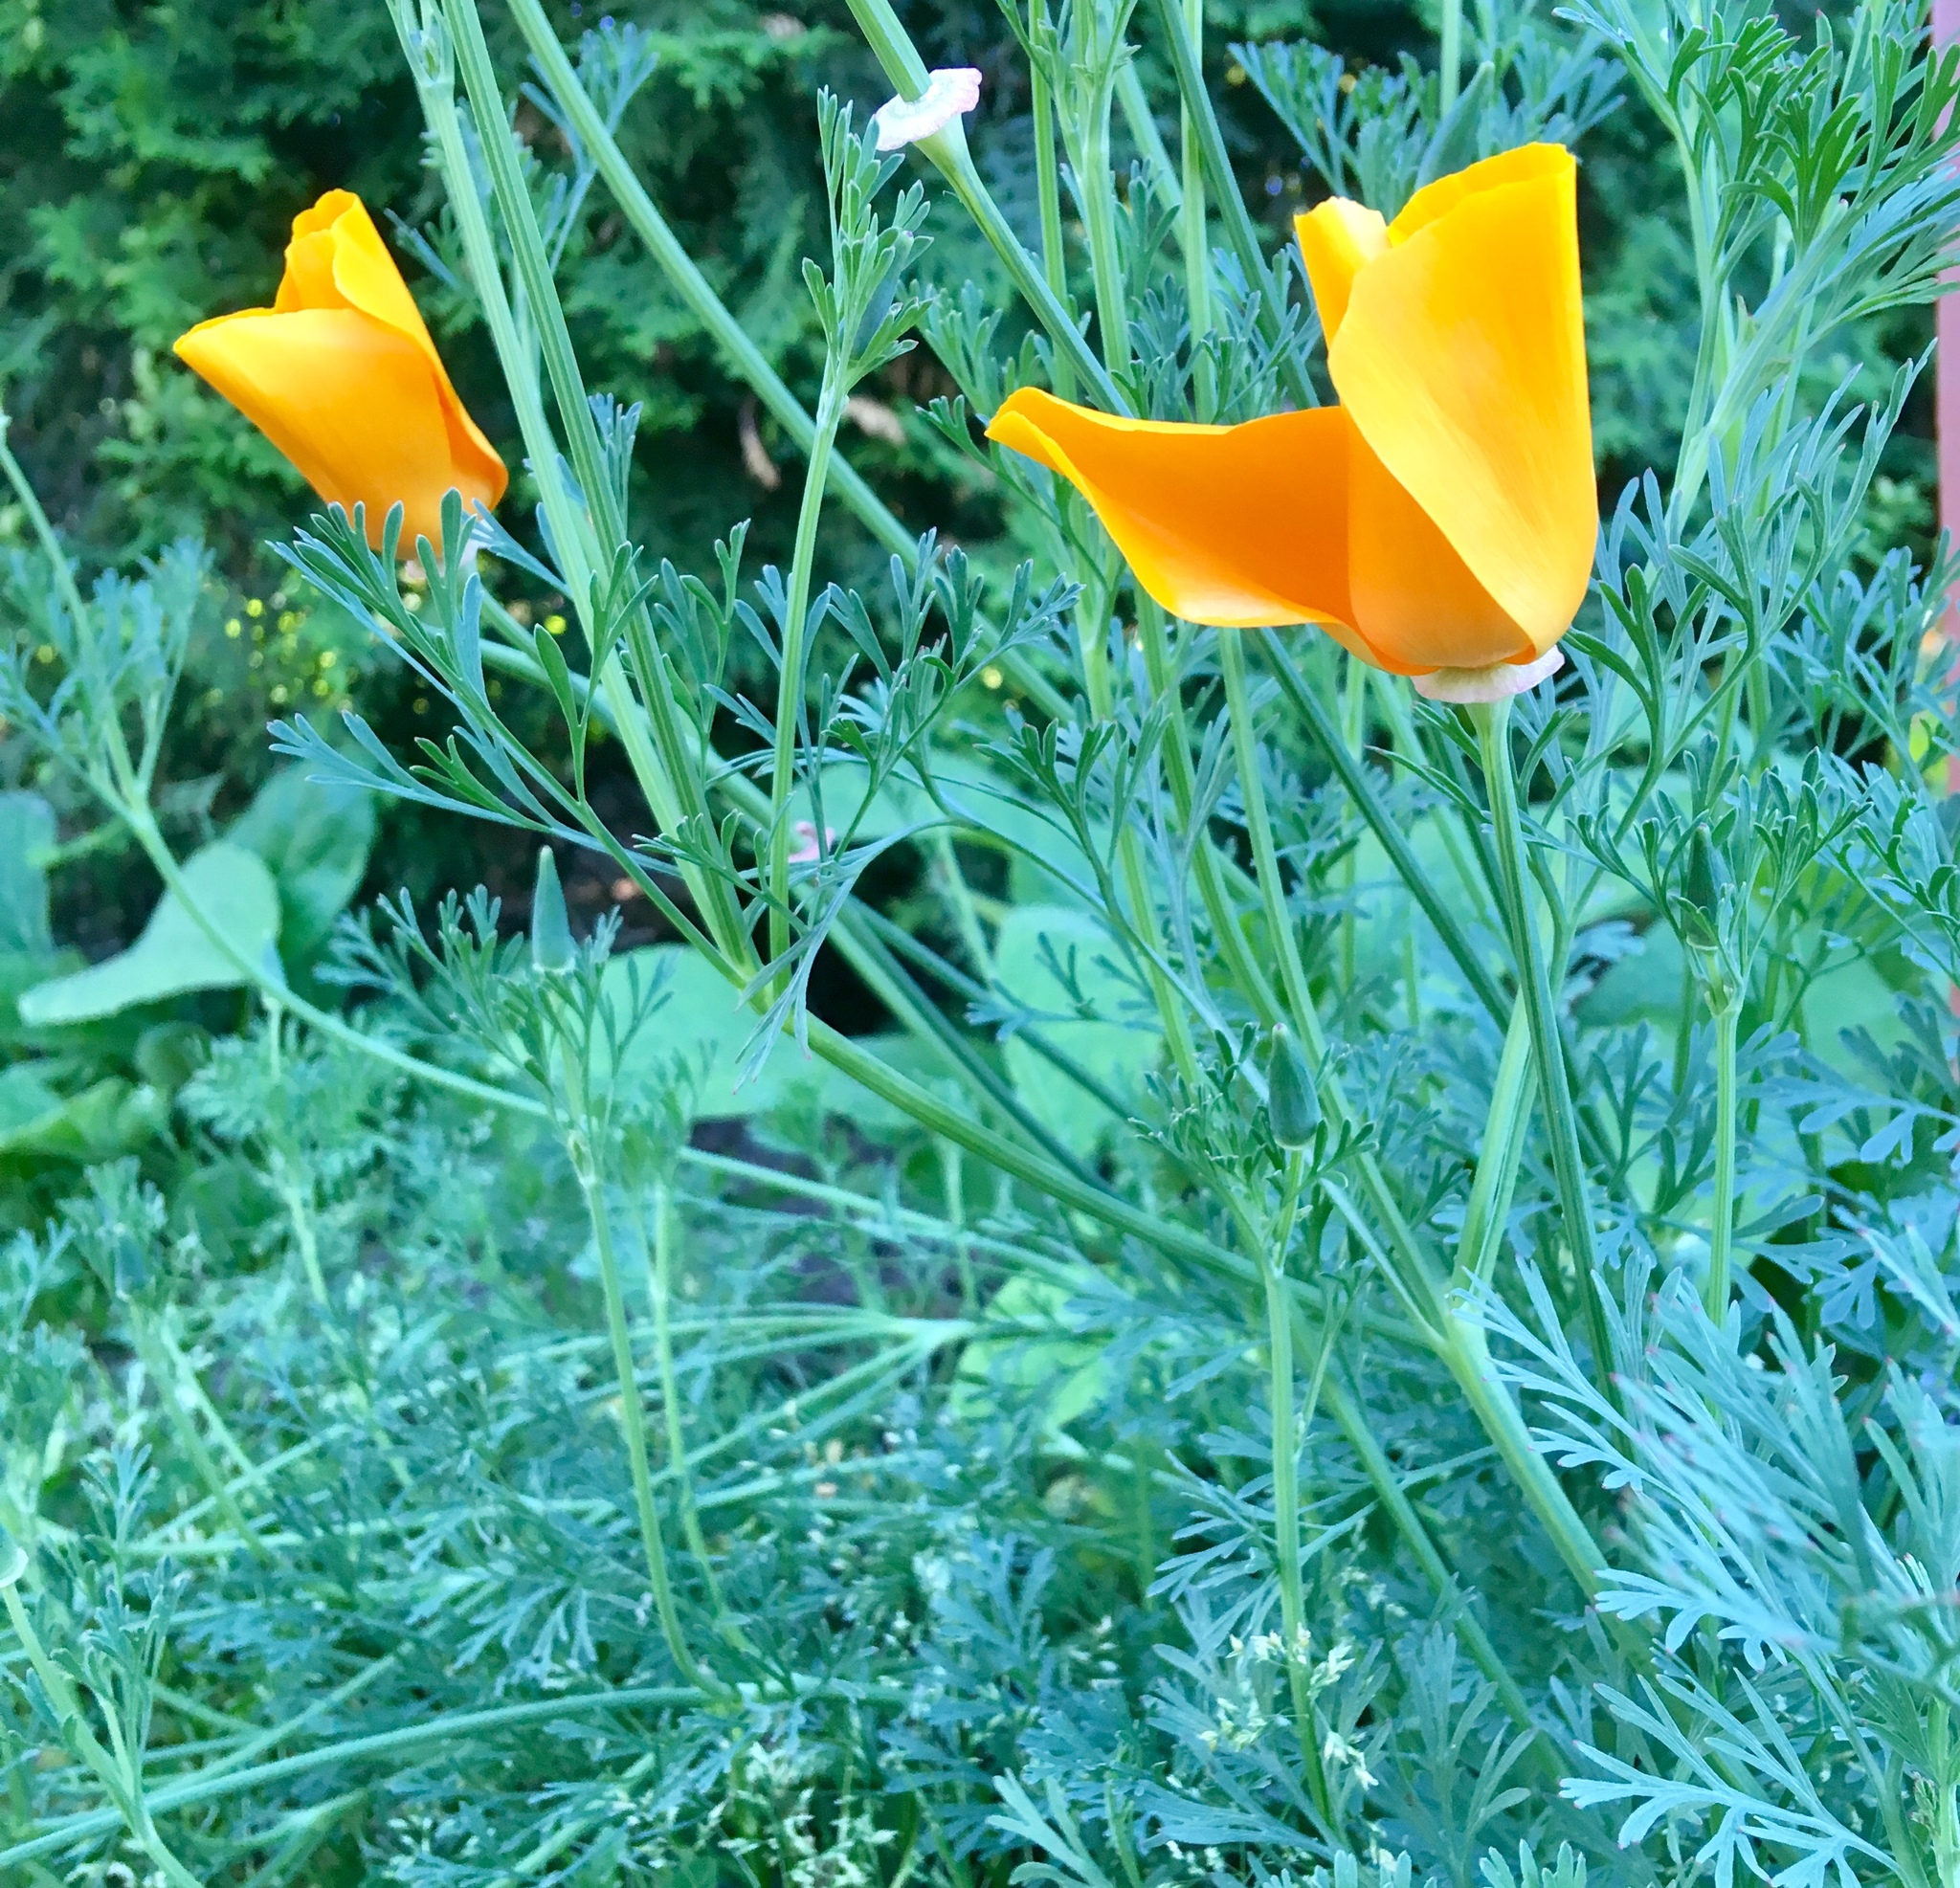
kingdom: Plantae
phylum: Tracheophyta
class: Magnoliopsida
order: Ranunculales
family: Papaveraceae
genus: Eschscholzia
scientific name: Eschscholzia californica
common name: California poppy
